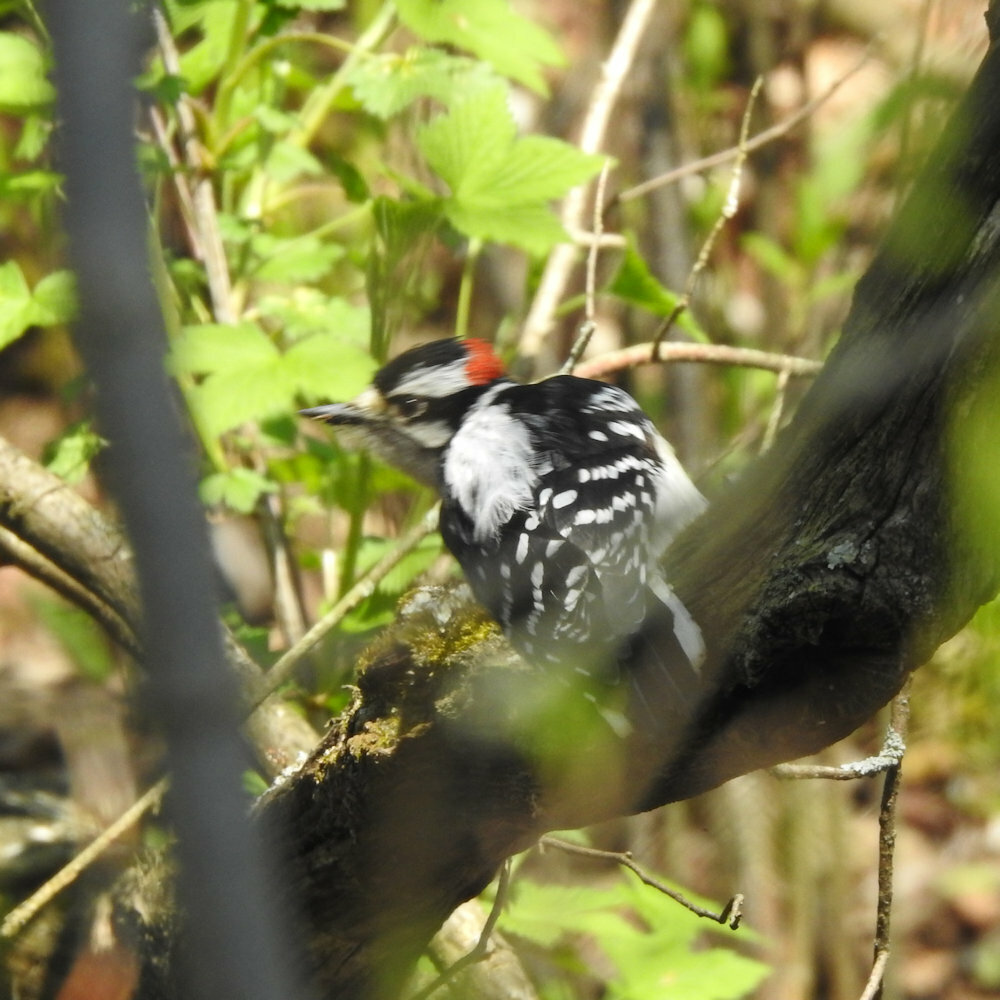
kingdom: Animalia
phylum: Chordata
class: Aves
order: Piciformes
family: Picidae
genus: Dryobates
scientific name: Dryobates pubescens
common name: Downy woodpecker
